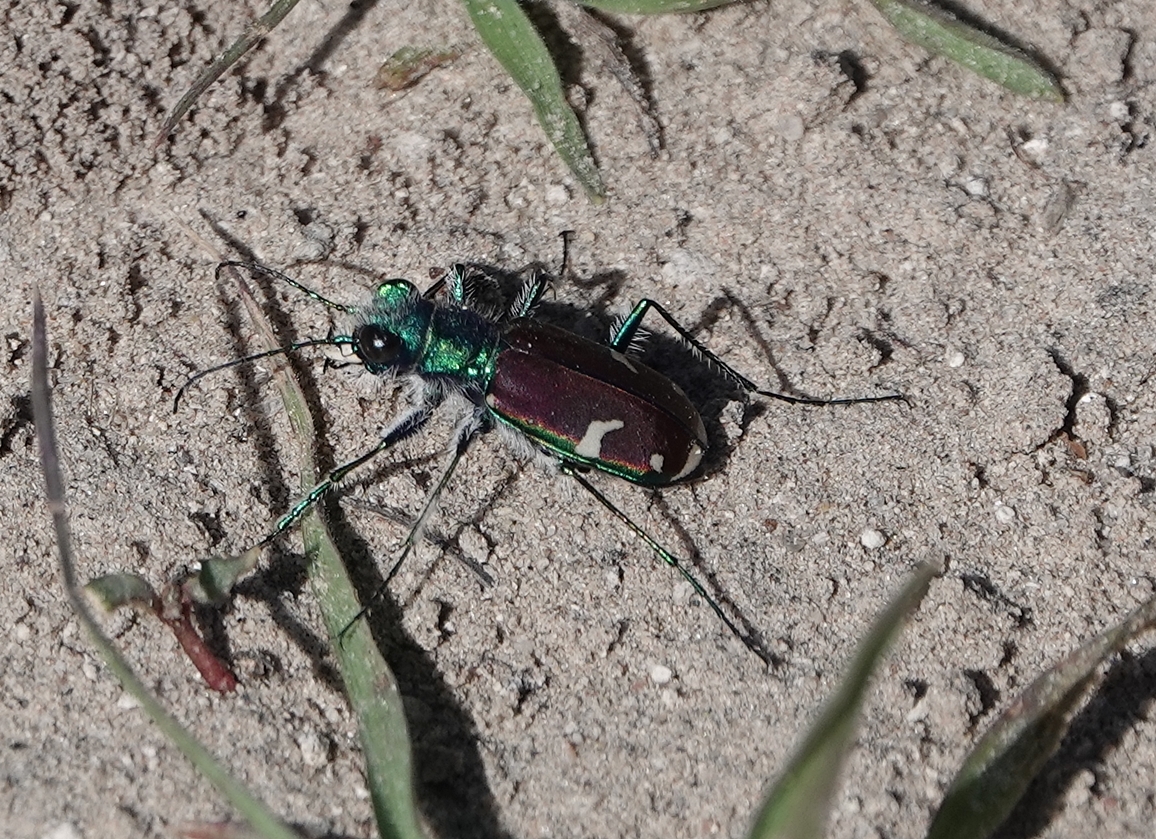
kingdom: Animalia
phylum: Arthropoda
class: Insecta
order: Coleoptera
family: Carabidae
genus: Cicindela
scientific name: Cicindela splendida
